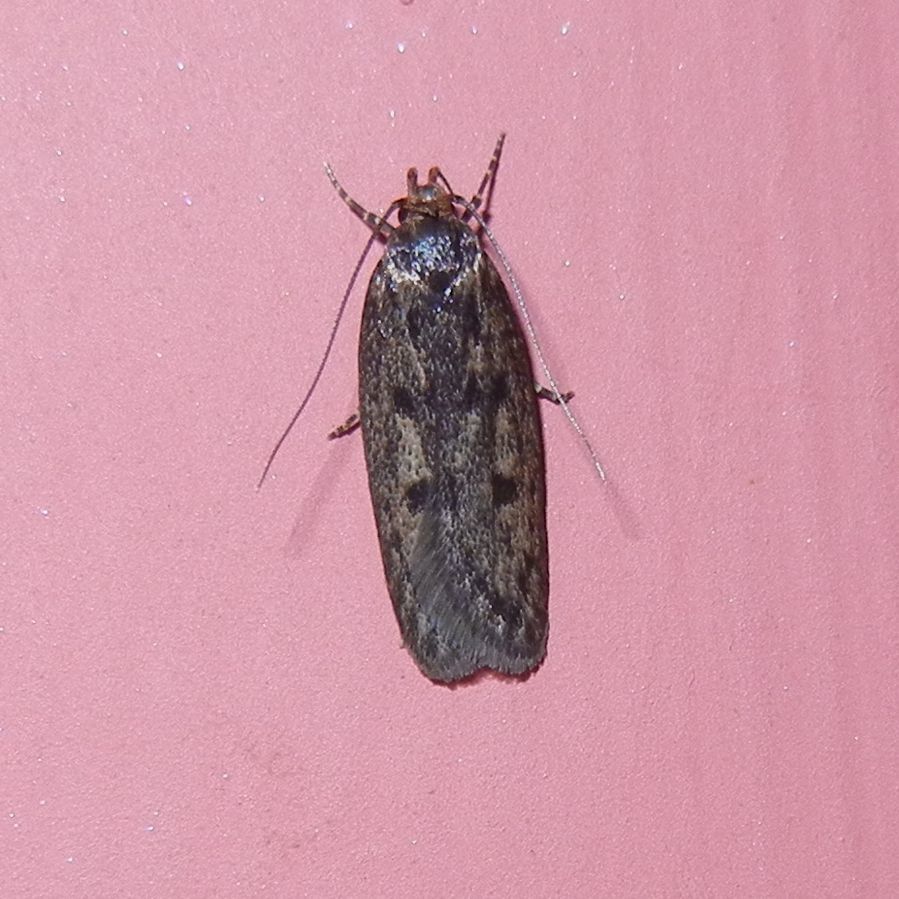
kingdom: Animalia
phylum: Arthropoda
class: Insecta
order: Lepidoptera
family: Oecophoridae
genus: Hofmannophila
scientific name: Hofmannophila pseudospretella
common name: Brown house moth
